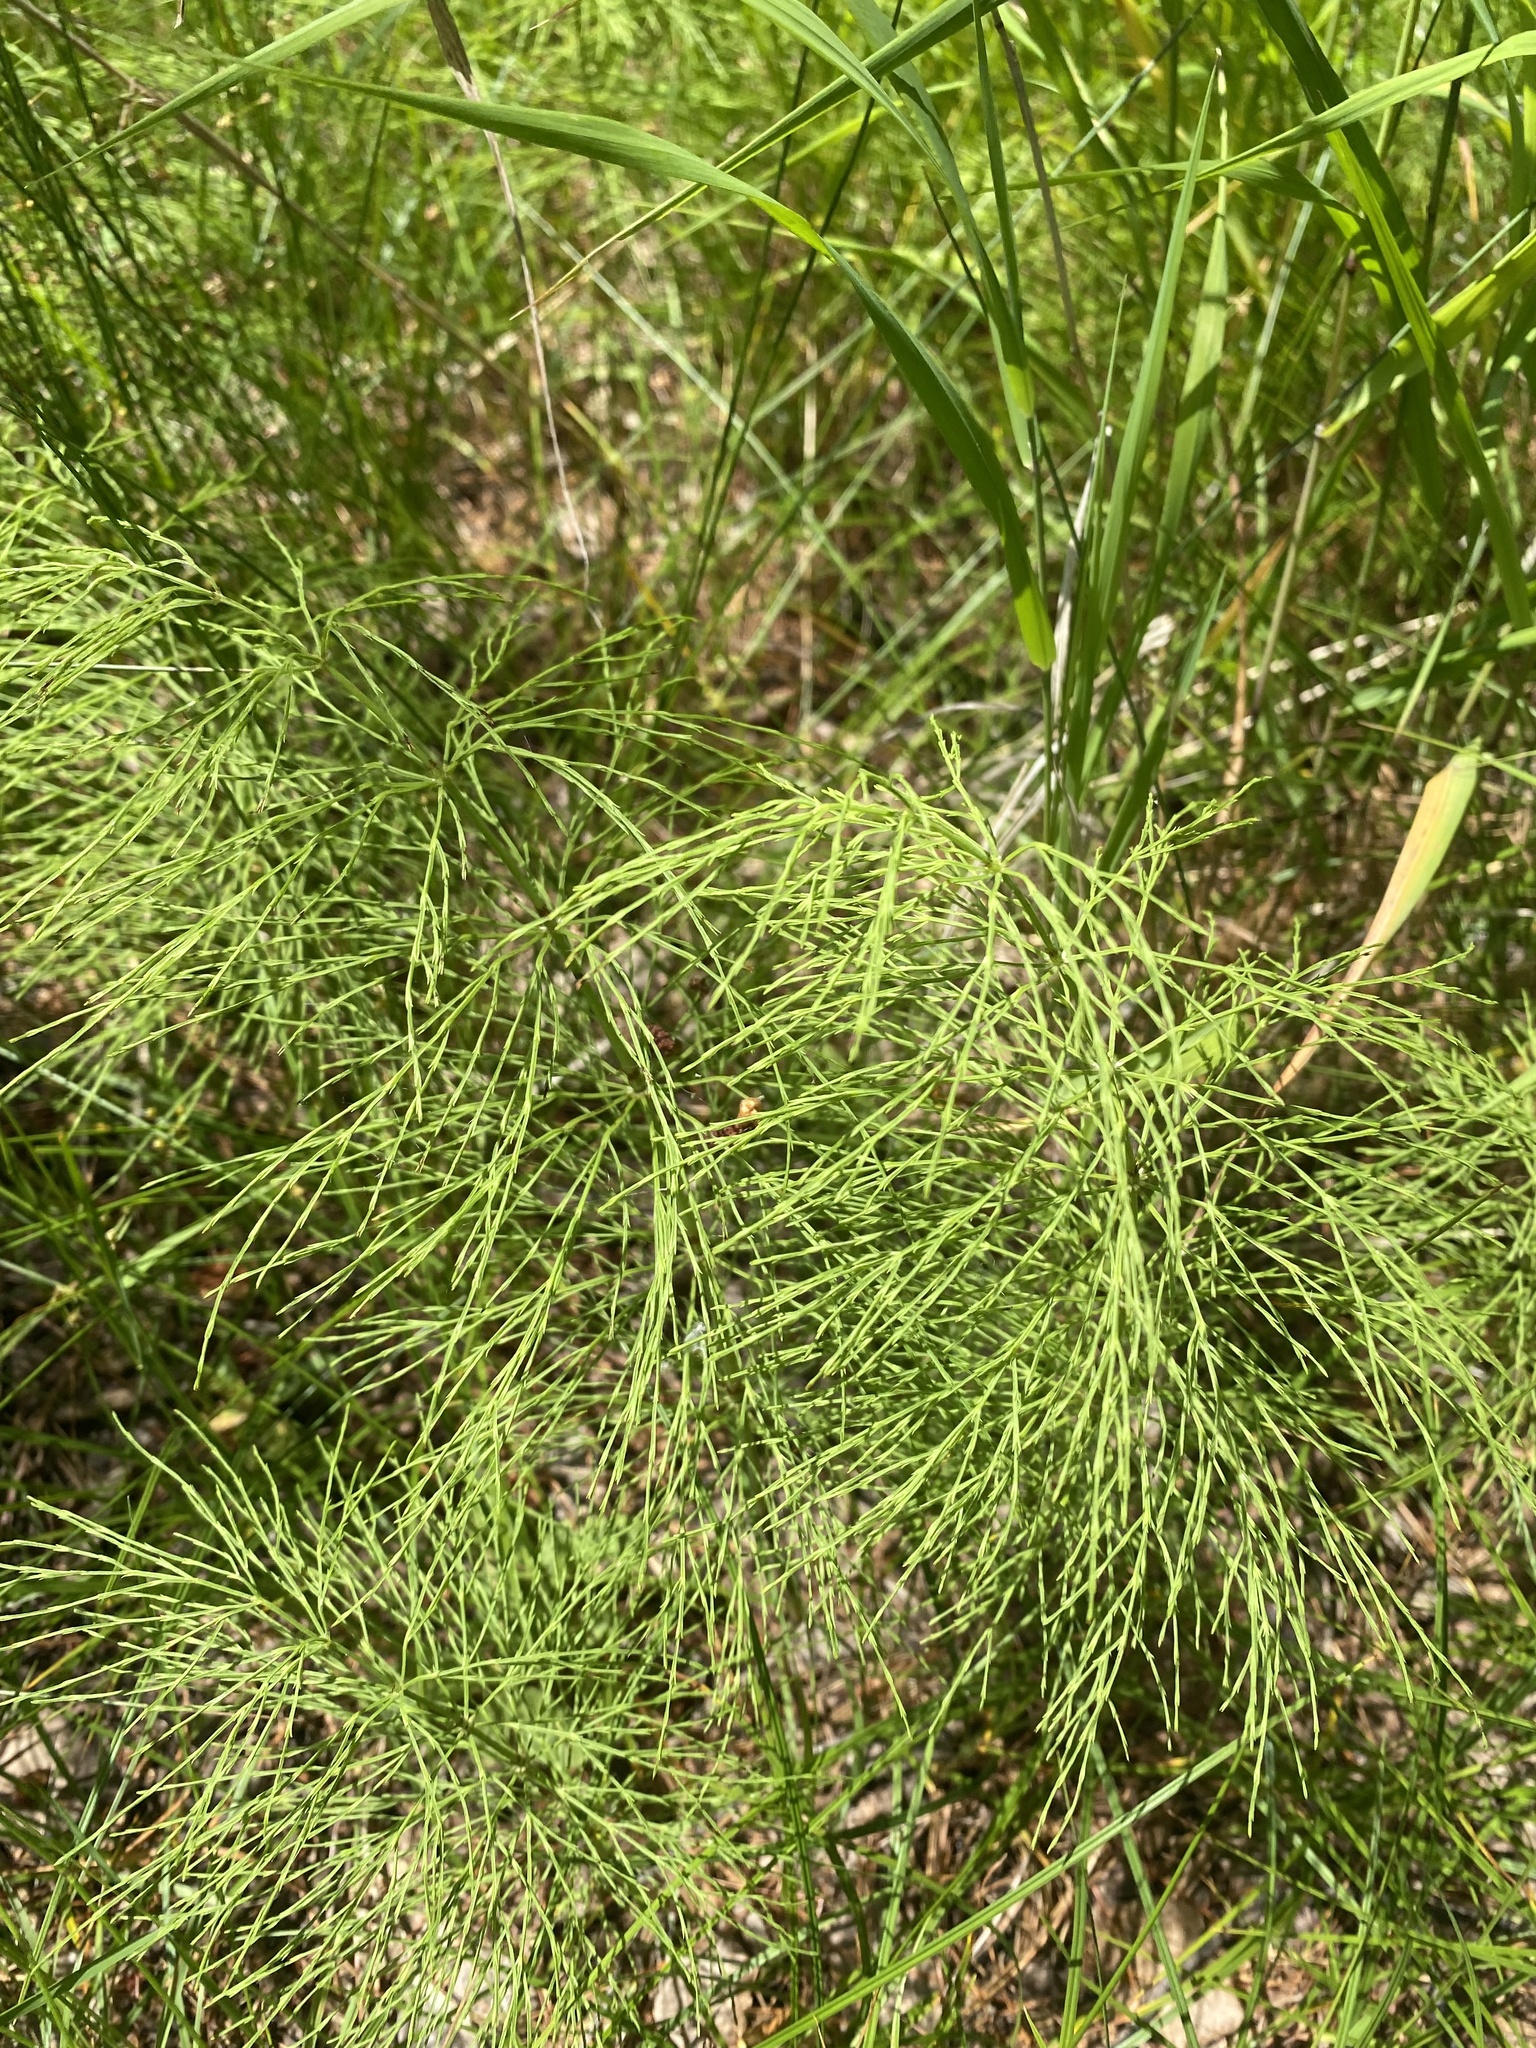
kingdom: Plantae
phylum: Tracheophyta
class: Polypodiopsida
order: Equisetales
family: Equisetaceae
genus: Equisetum
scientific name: Equisetum sylvaticum
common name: Wood horsetail
